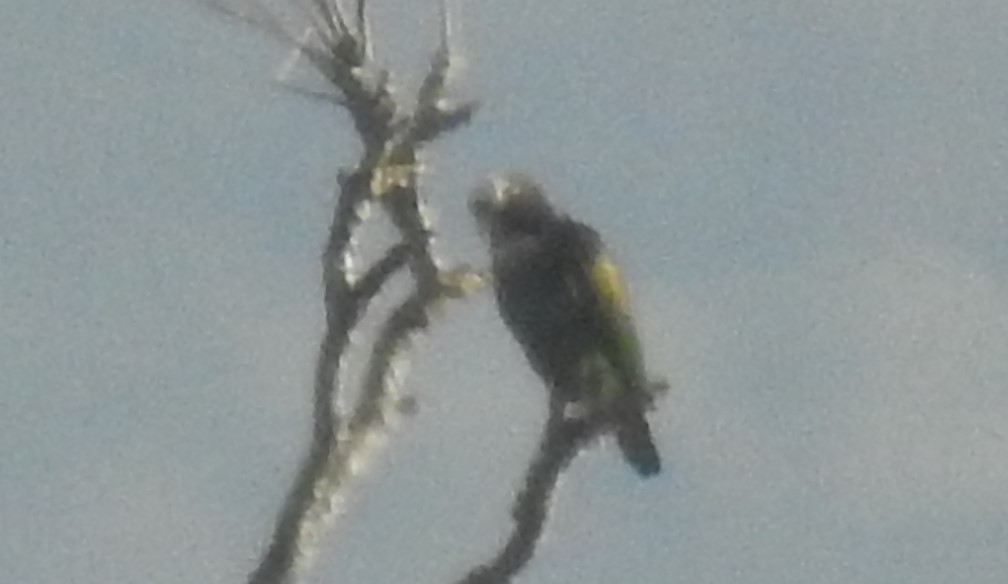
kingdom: Animalia
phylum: Chordata
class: Aves
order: Psittaciformes
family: Psittacidae
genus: Pionus
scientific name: Pionus senilis
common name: White-crowned parrot
